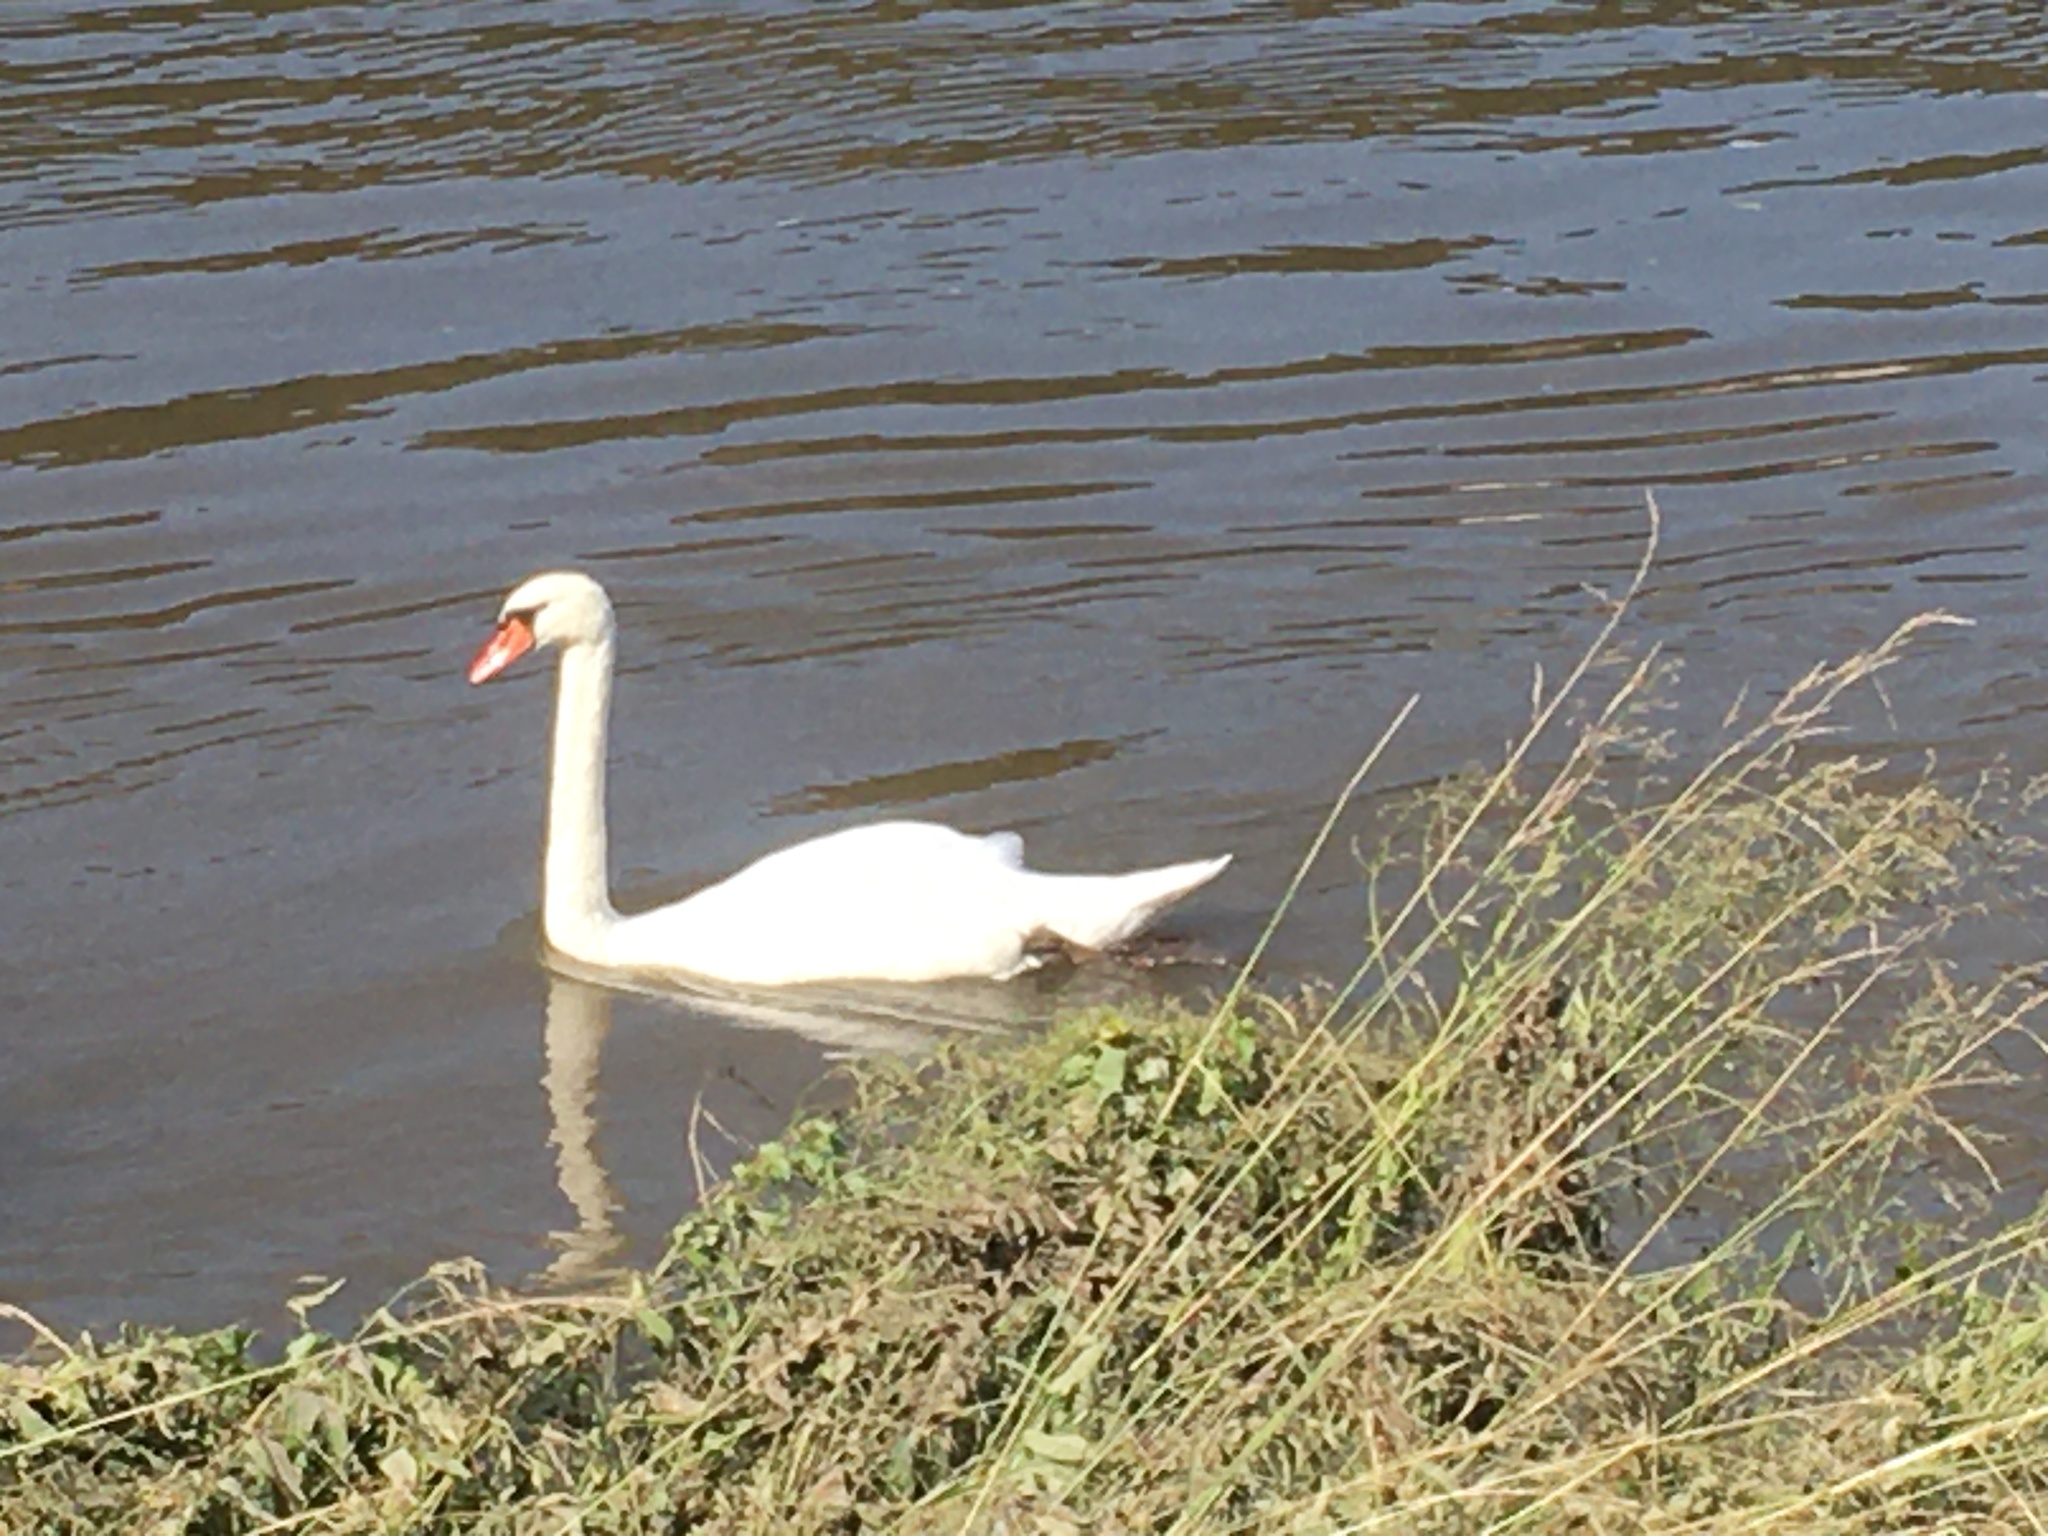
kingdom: Animalia
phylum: Chordata
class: Aves
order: Anseriformes
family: Anatidae
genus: Cygnus
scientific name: Cygnus olor
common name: Mute swan
